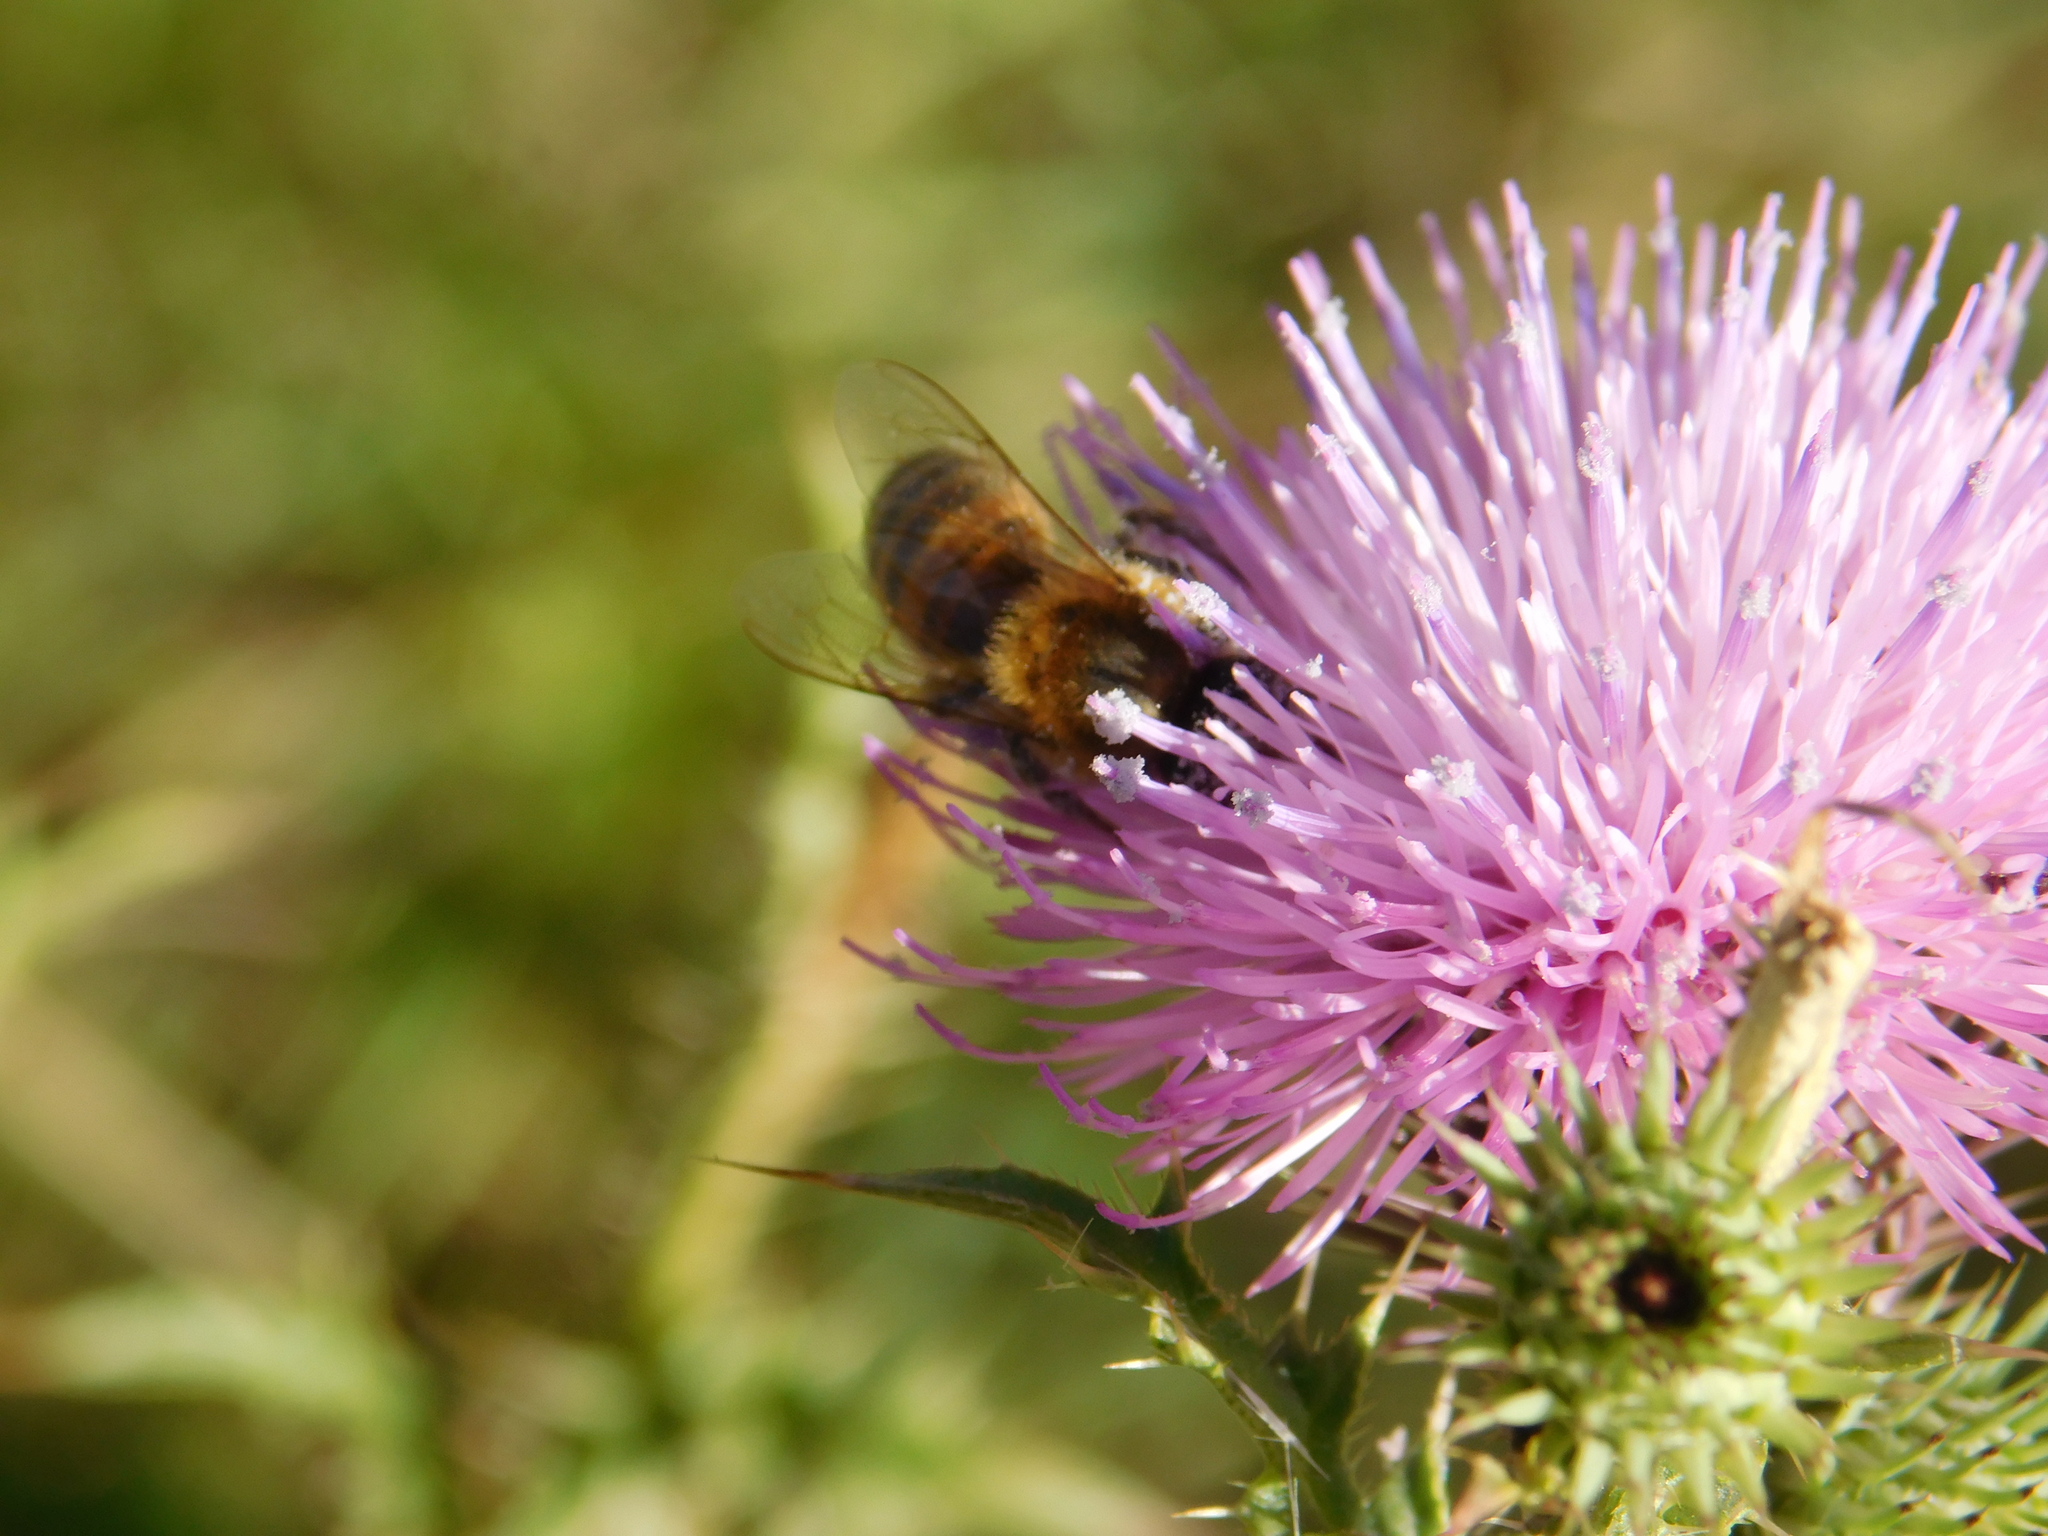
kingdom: Animalia
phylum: Arthropoda
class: Insecta
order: Hymenoptera
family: Apidae
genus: Apis
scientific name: Apis mellifera
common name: Honey bee
